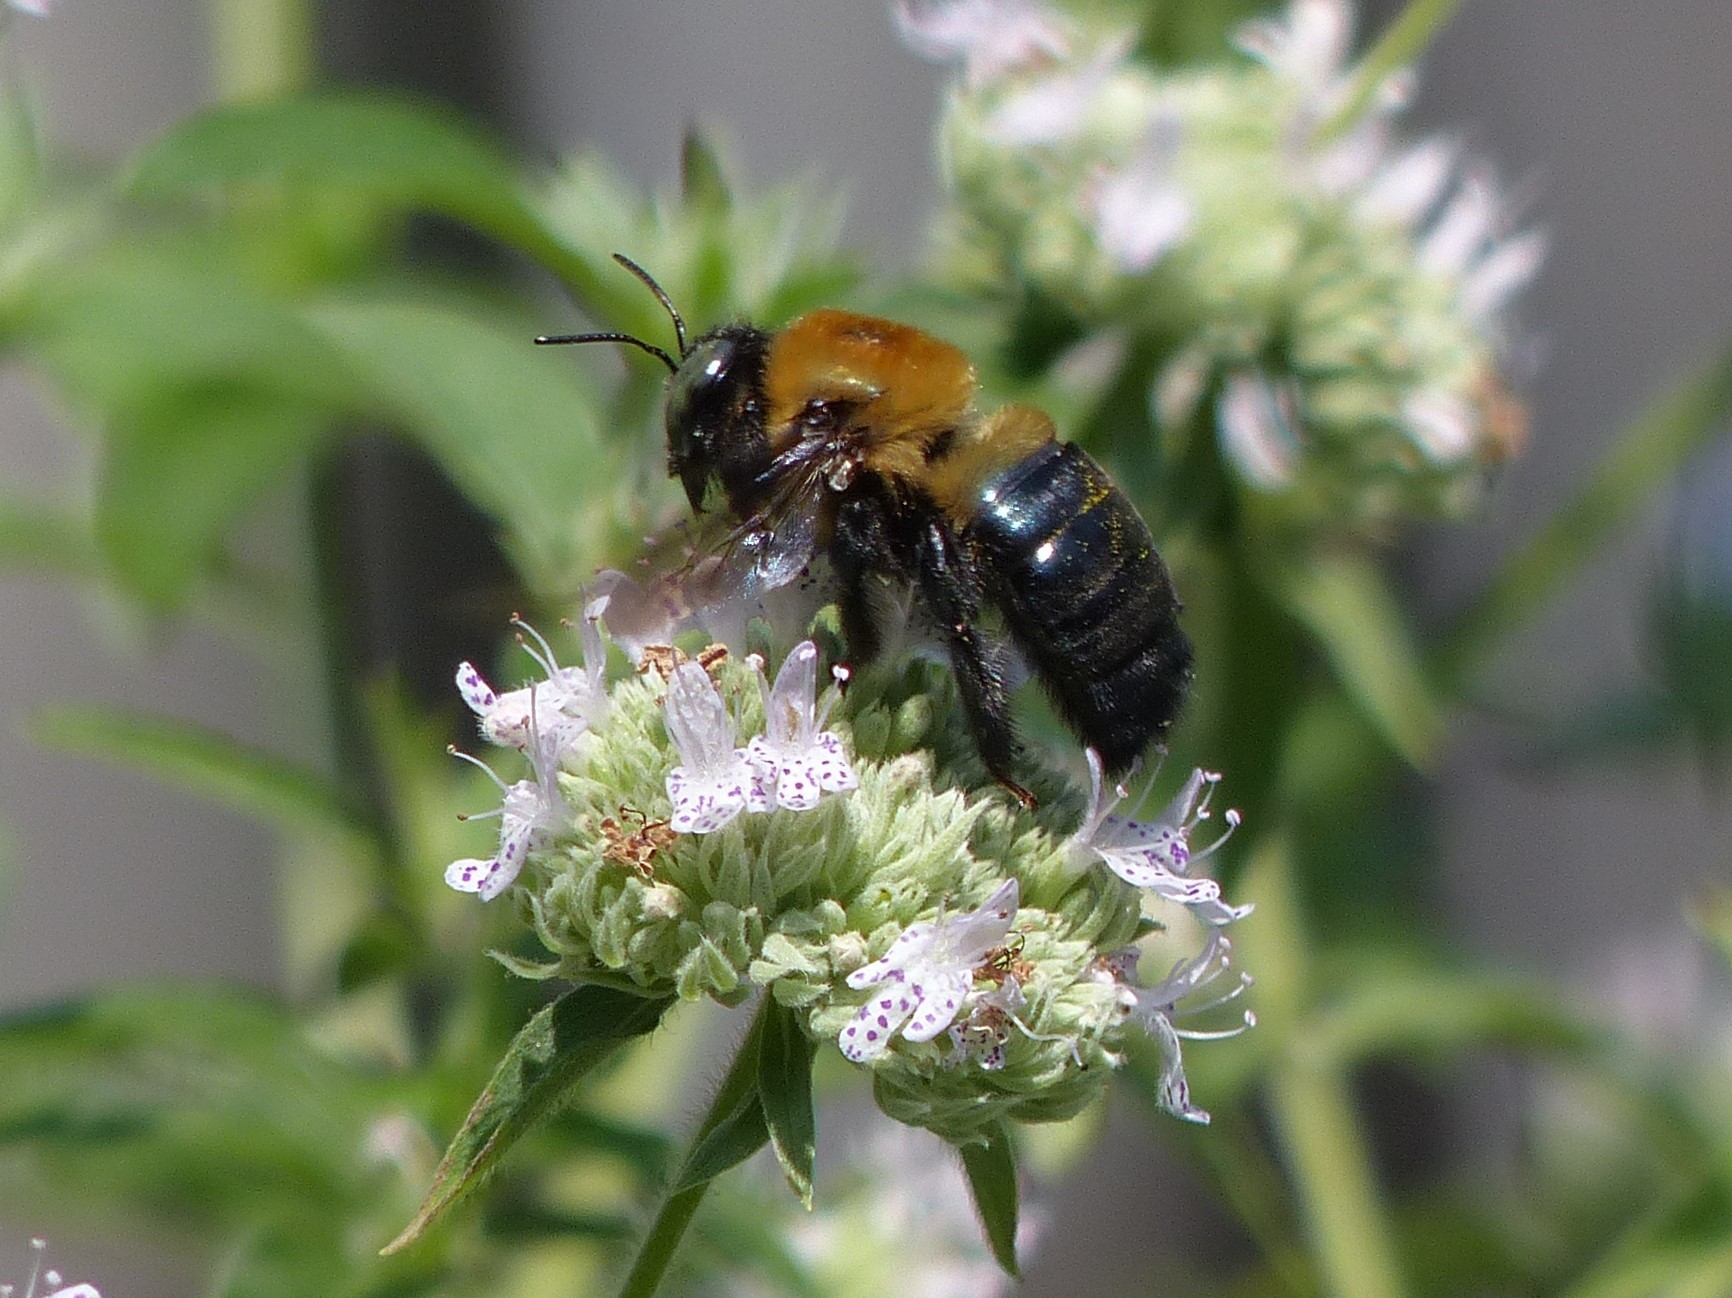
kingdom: Animalia
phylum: Arthropoda
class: Insecta
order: Hymenoptera
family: Apidae
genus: Xylocopa
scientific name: Xylocopa virginica
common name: Carpenter bee
